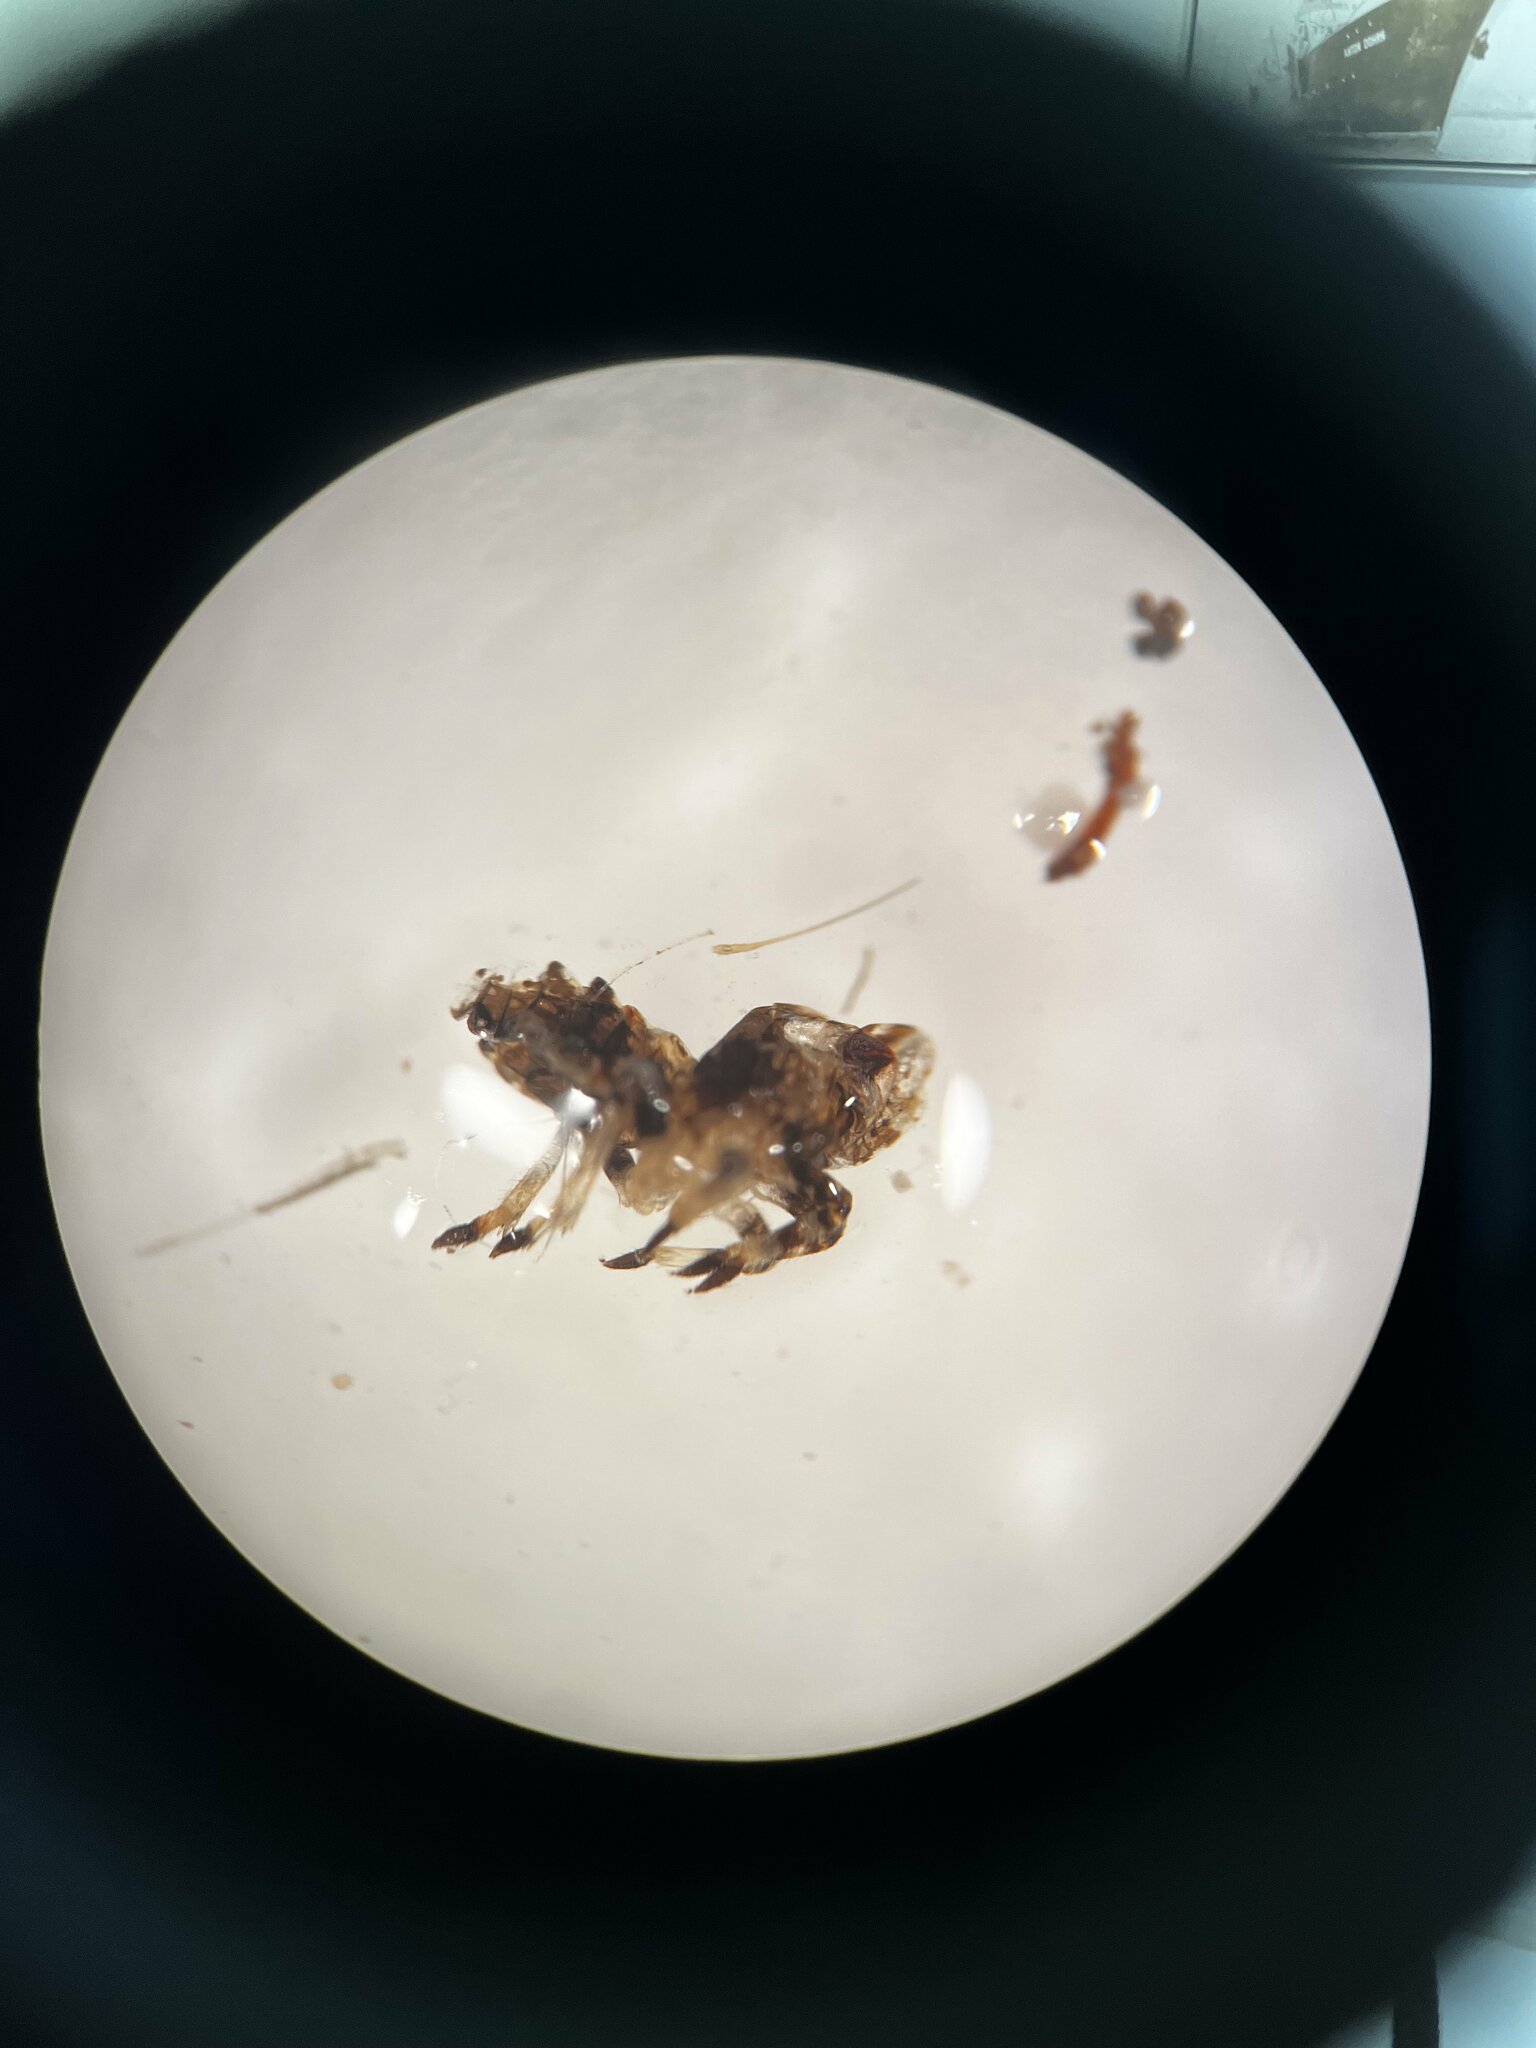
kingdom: Animalia
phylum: Arthropoda
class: Insecta
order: Hemiptera
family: Delphacidae
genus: Asiraca
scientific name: Asiraca clavicornis
